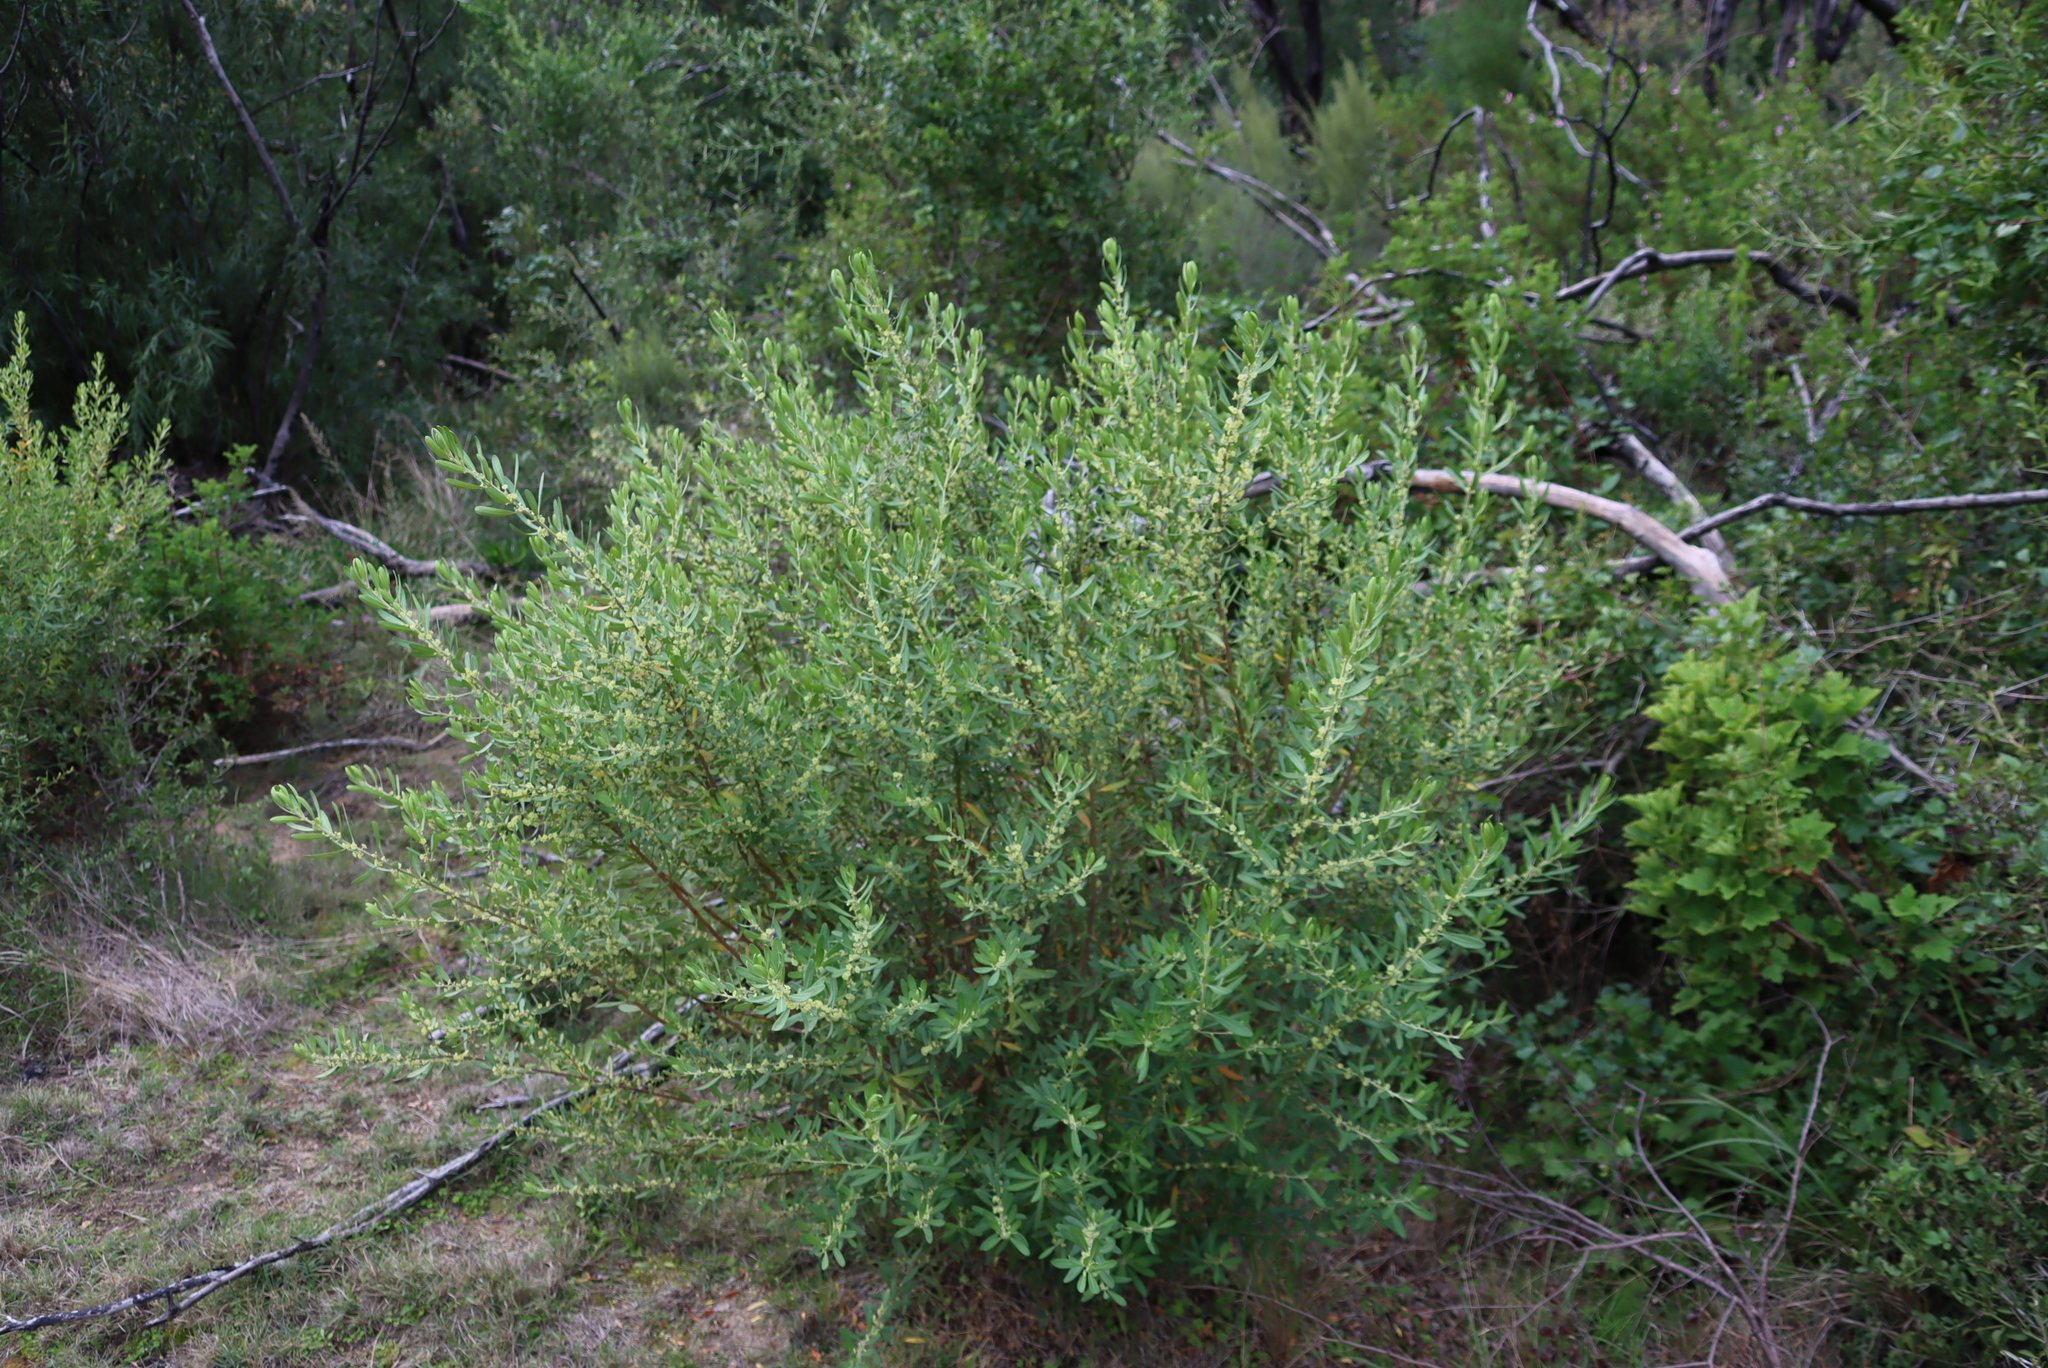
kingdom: Plantae
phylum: Tracheophyta
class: Magnoliopsida
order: Malpighiales
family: Peraceae
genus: Clutia
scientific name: Clutia daphnoides
